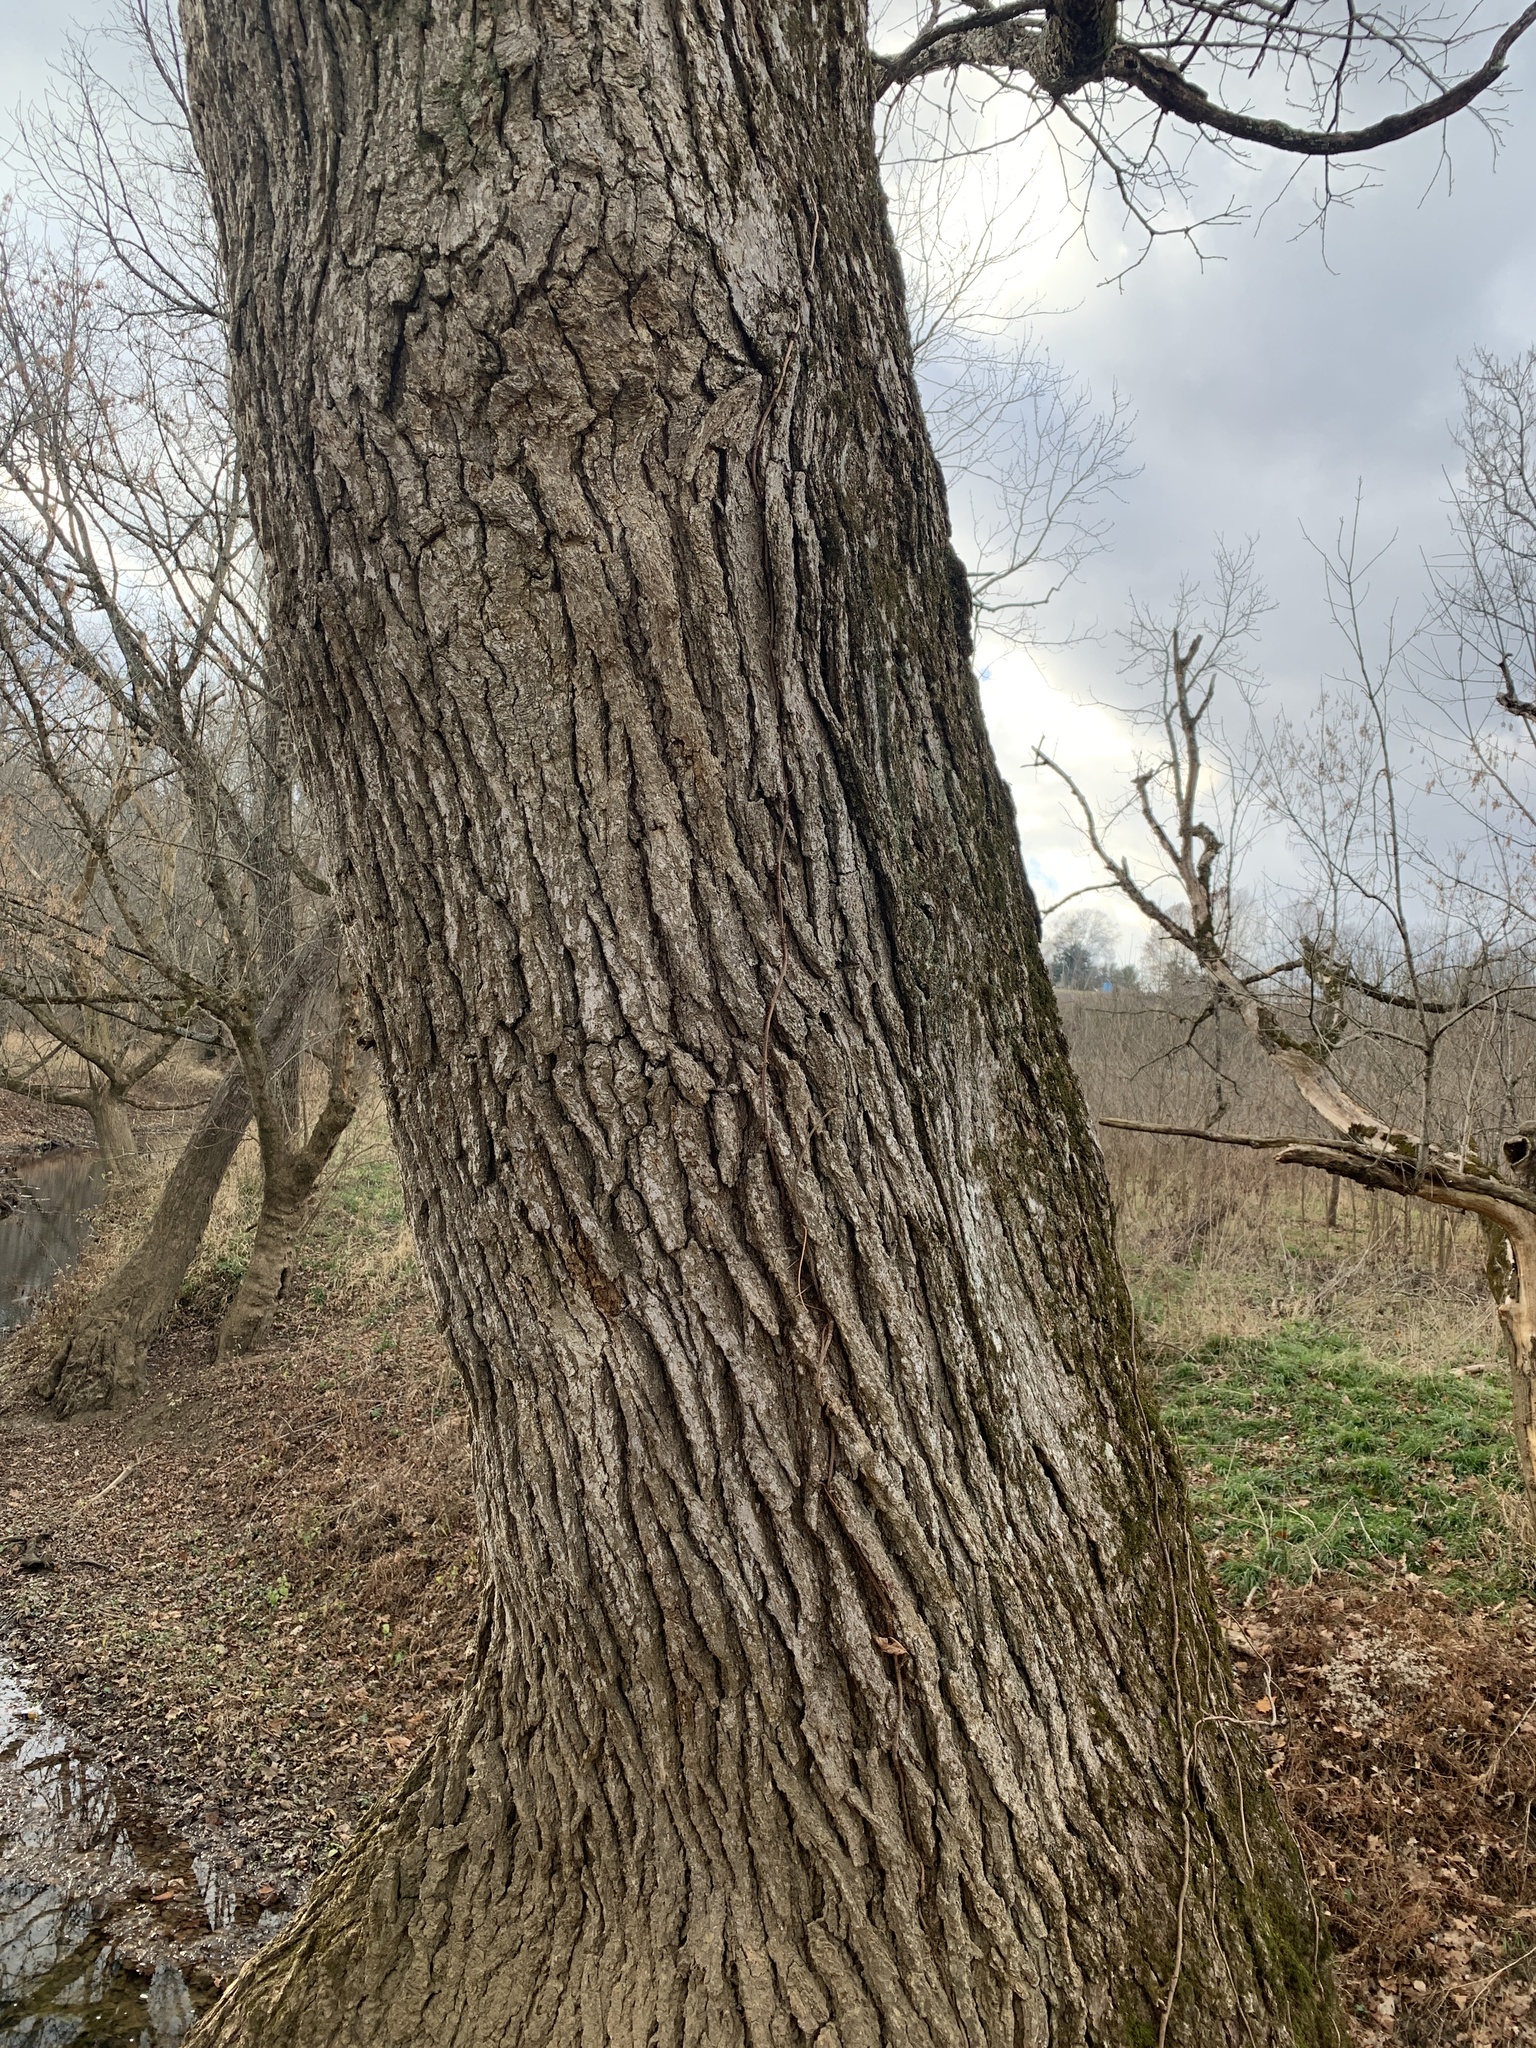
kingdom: Plantae
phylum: Tracheophyta
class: Magnoliopsida
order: Fagales
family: Fagaceae
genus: Quercus
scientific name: Quercus macrocarpa
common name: Bur oak
